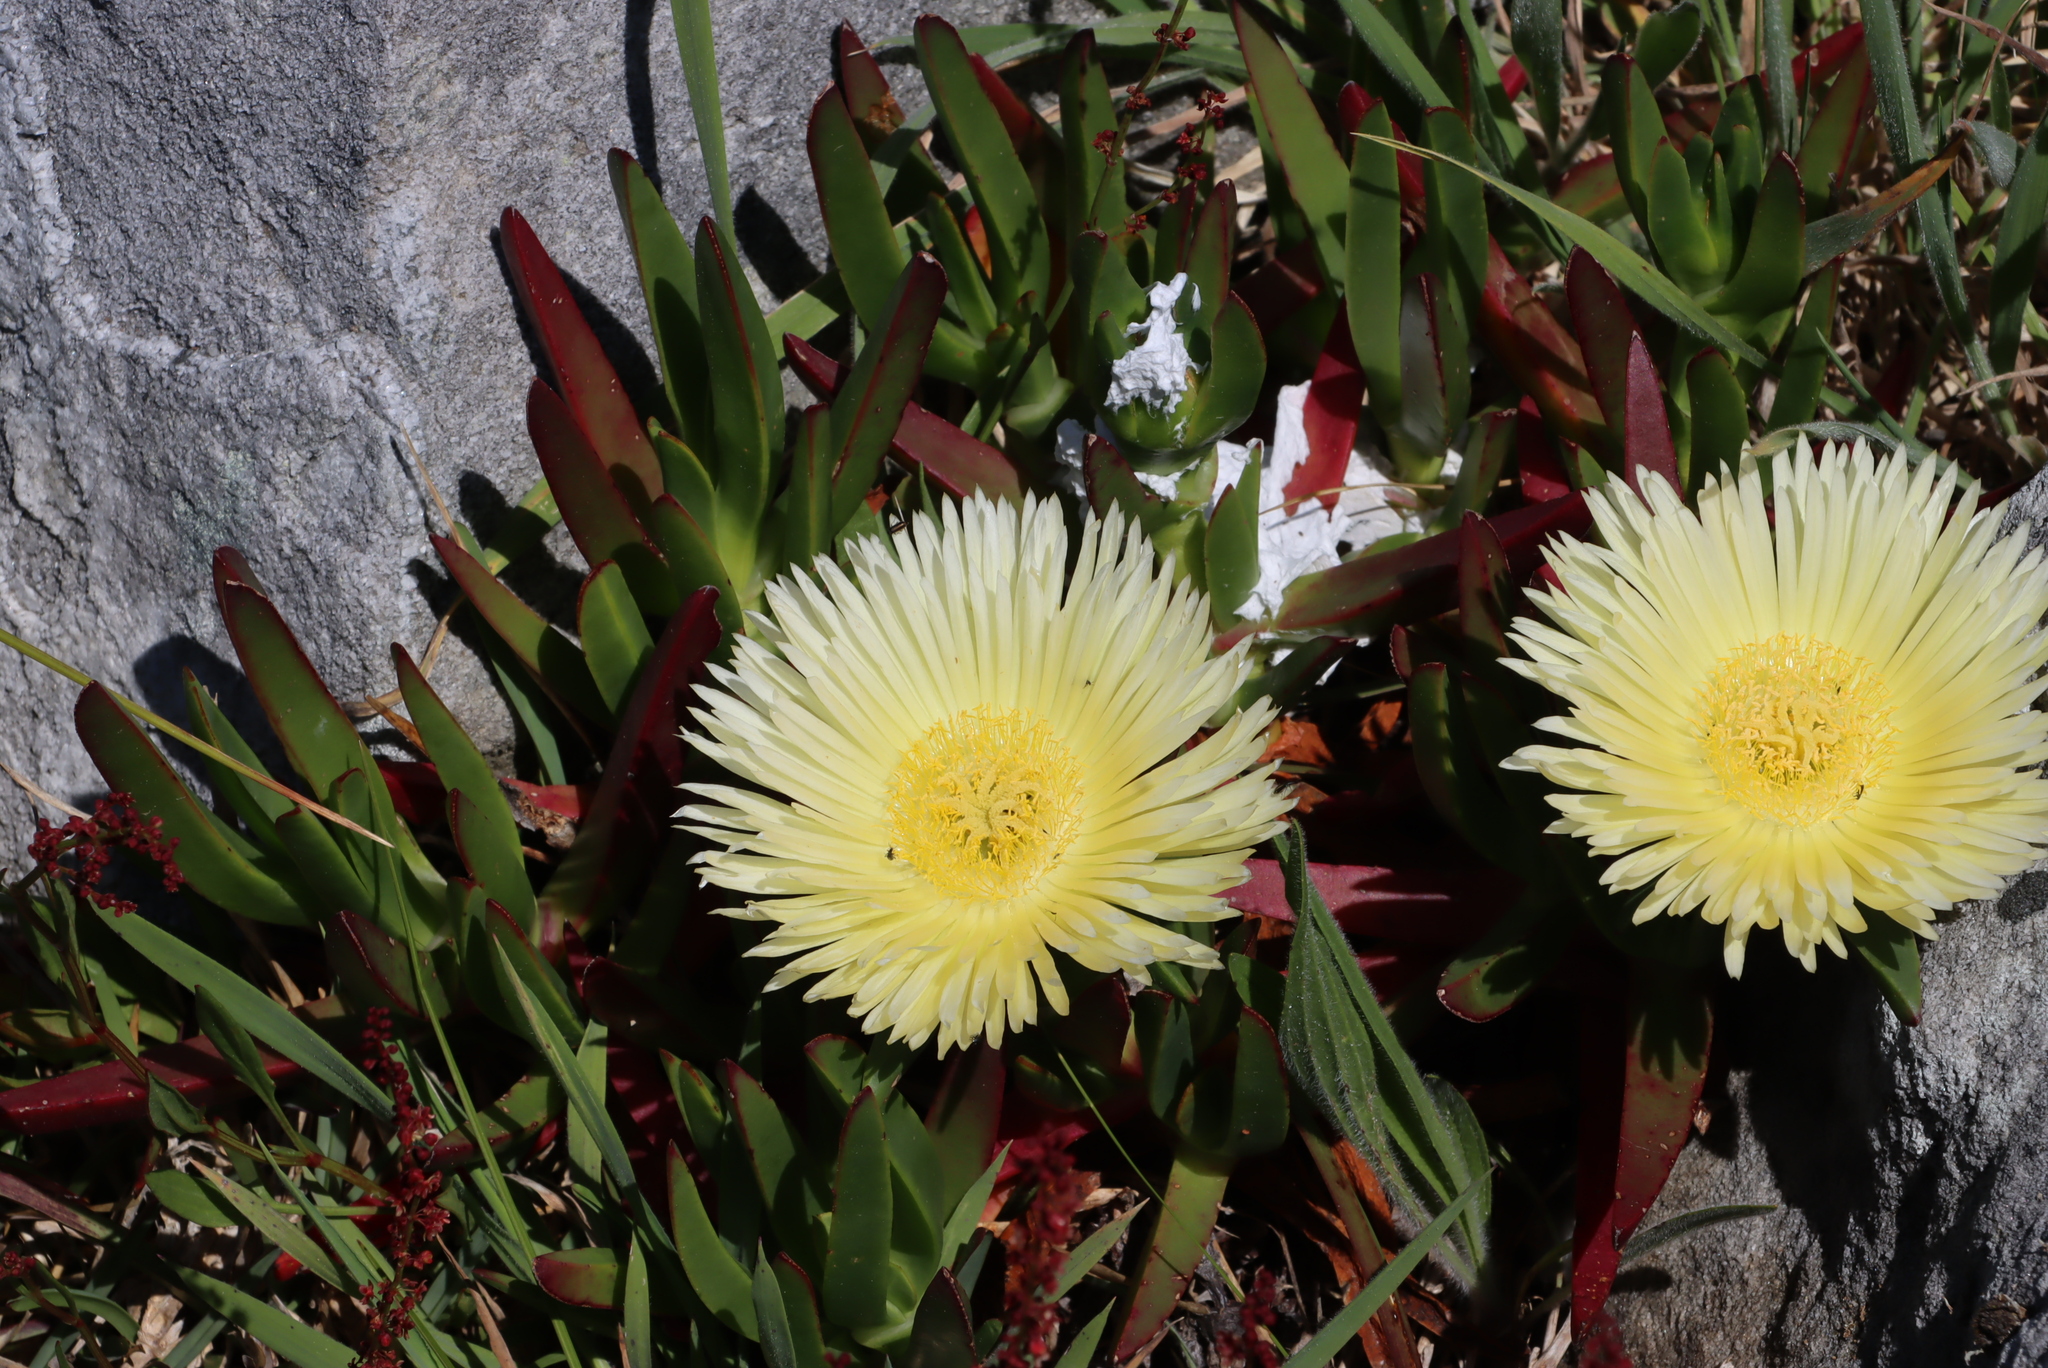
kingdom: Plantae
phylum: Tracheophyta
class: Magnoliopsida
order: Caryophyllales
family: Aizoaceae
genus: Carpobrotus
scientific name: Carpobrotus edulis
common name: Hottentot-fig
